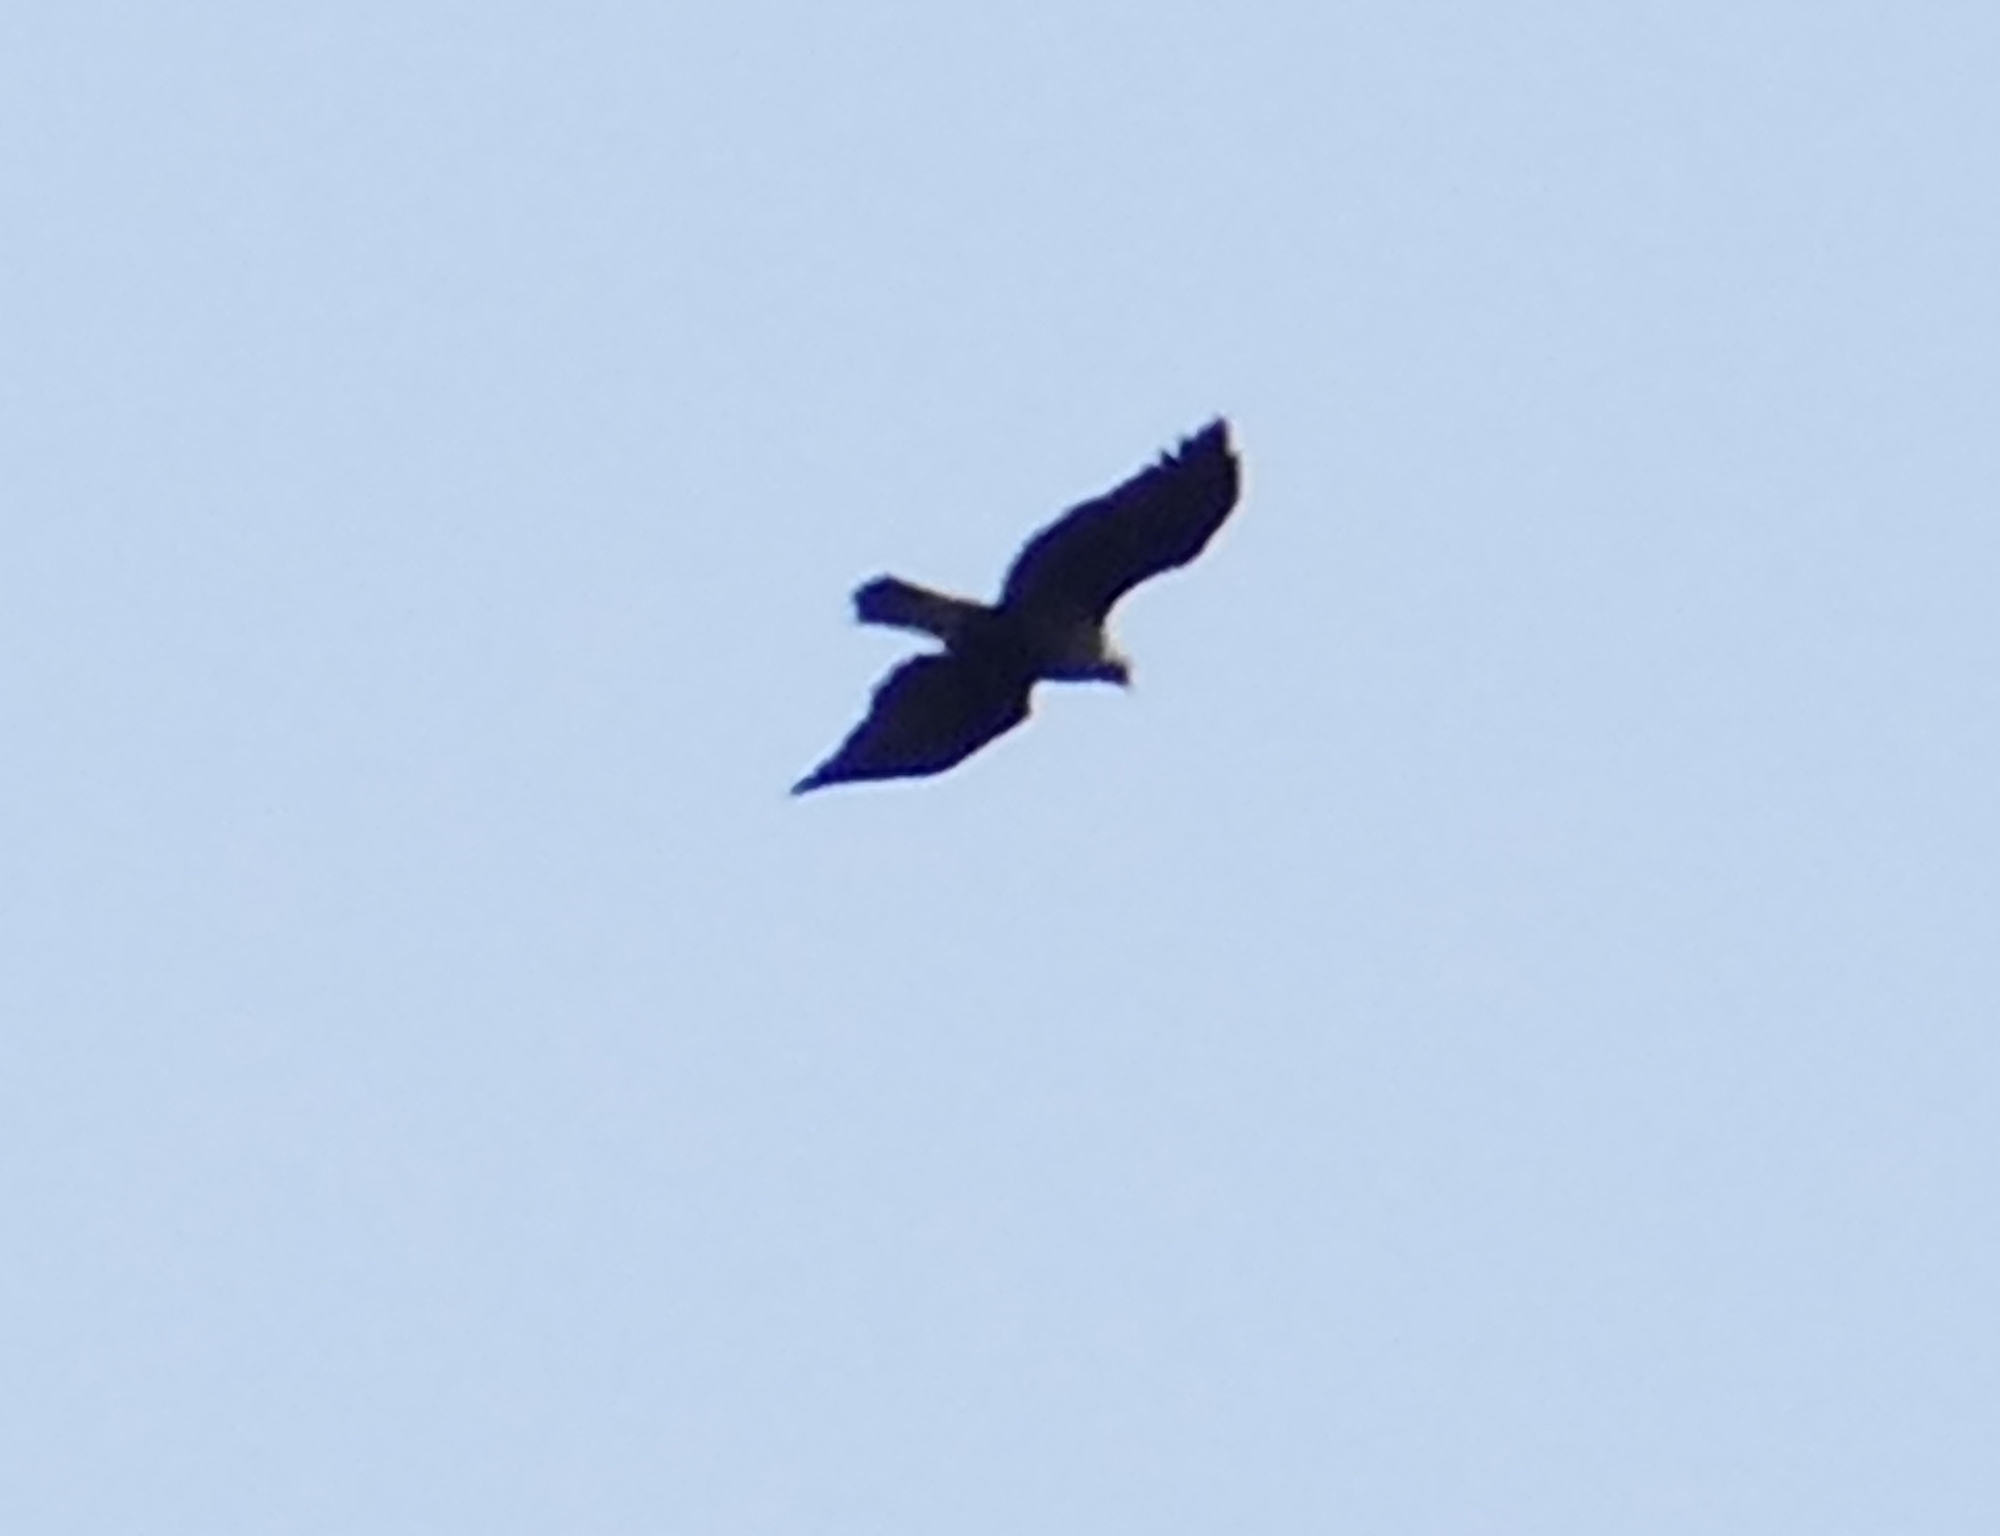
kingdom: Animalia
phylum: Chordata
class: Aves
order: Accipitriformes
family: Accipitridae
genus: Aquila
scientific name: Aquila chrysaetos
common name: Golden eagle
